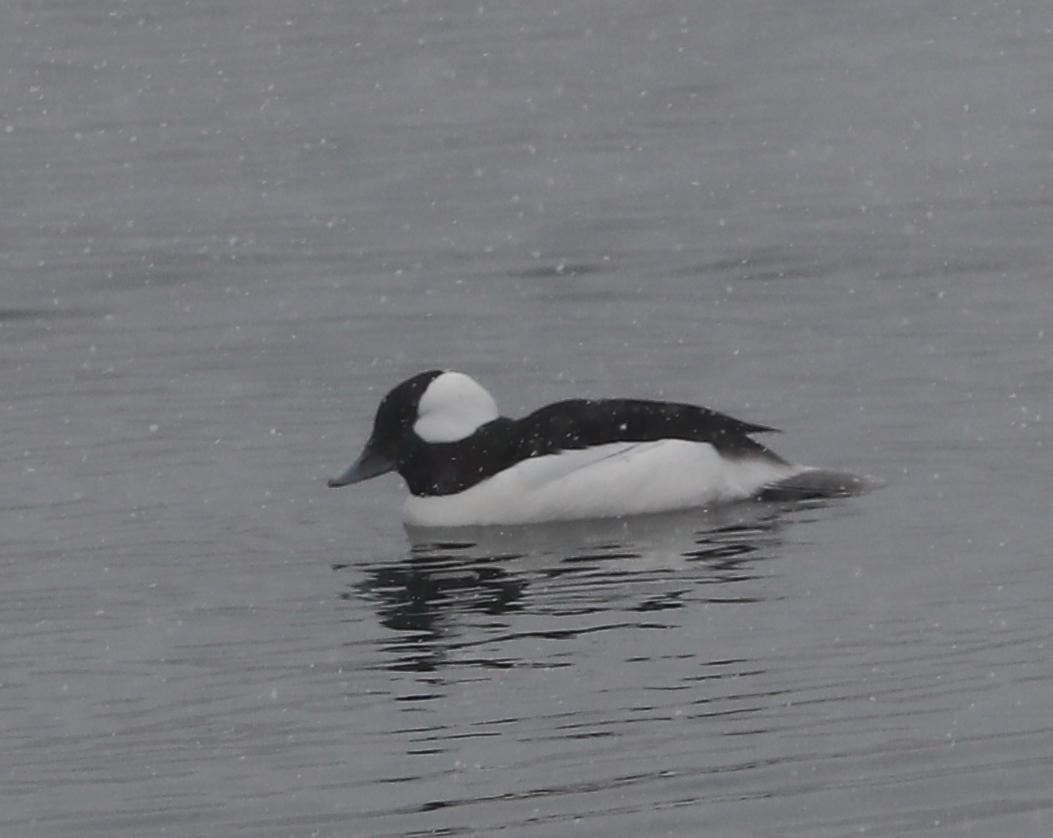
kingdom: Animalia
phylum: Chordata
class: Aves
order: Anseriformes
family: Anatidae
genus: Bucephala
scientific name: Bucephala albeola
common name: Bufflehead
